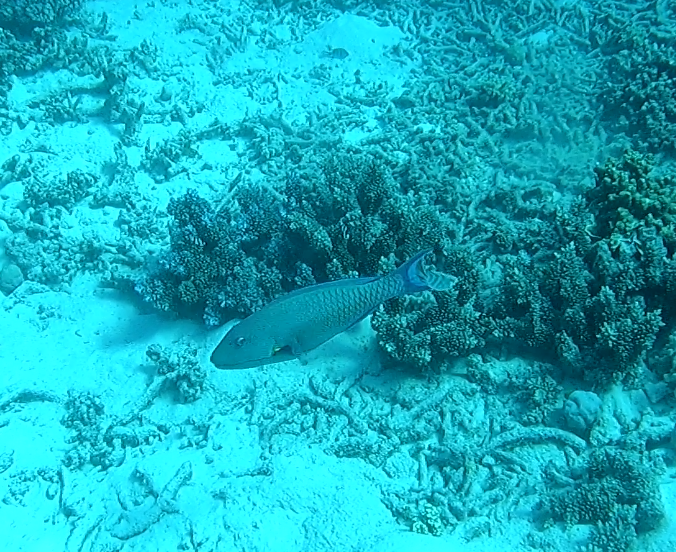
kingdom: Animalia
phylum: Chordata
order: Perciformes
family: Scaridae
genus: Cetoscarus
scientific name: Cetoscarus ocellatus
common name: Bicolor parrotfish
